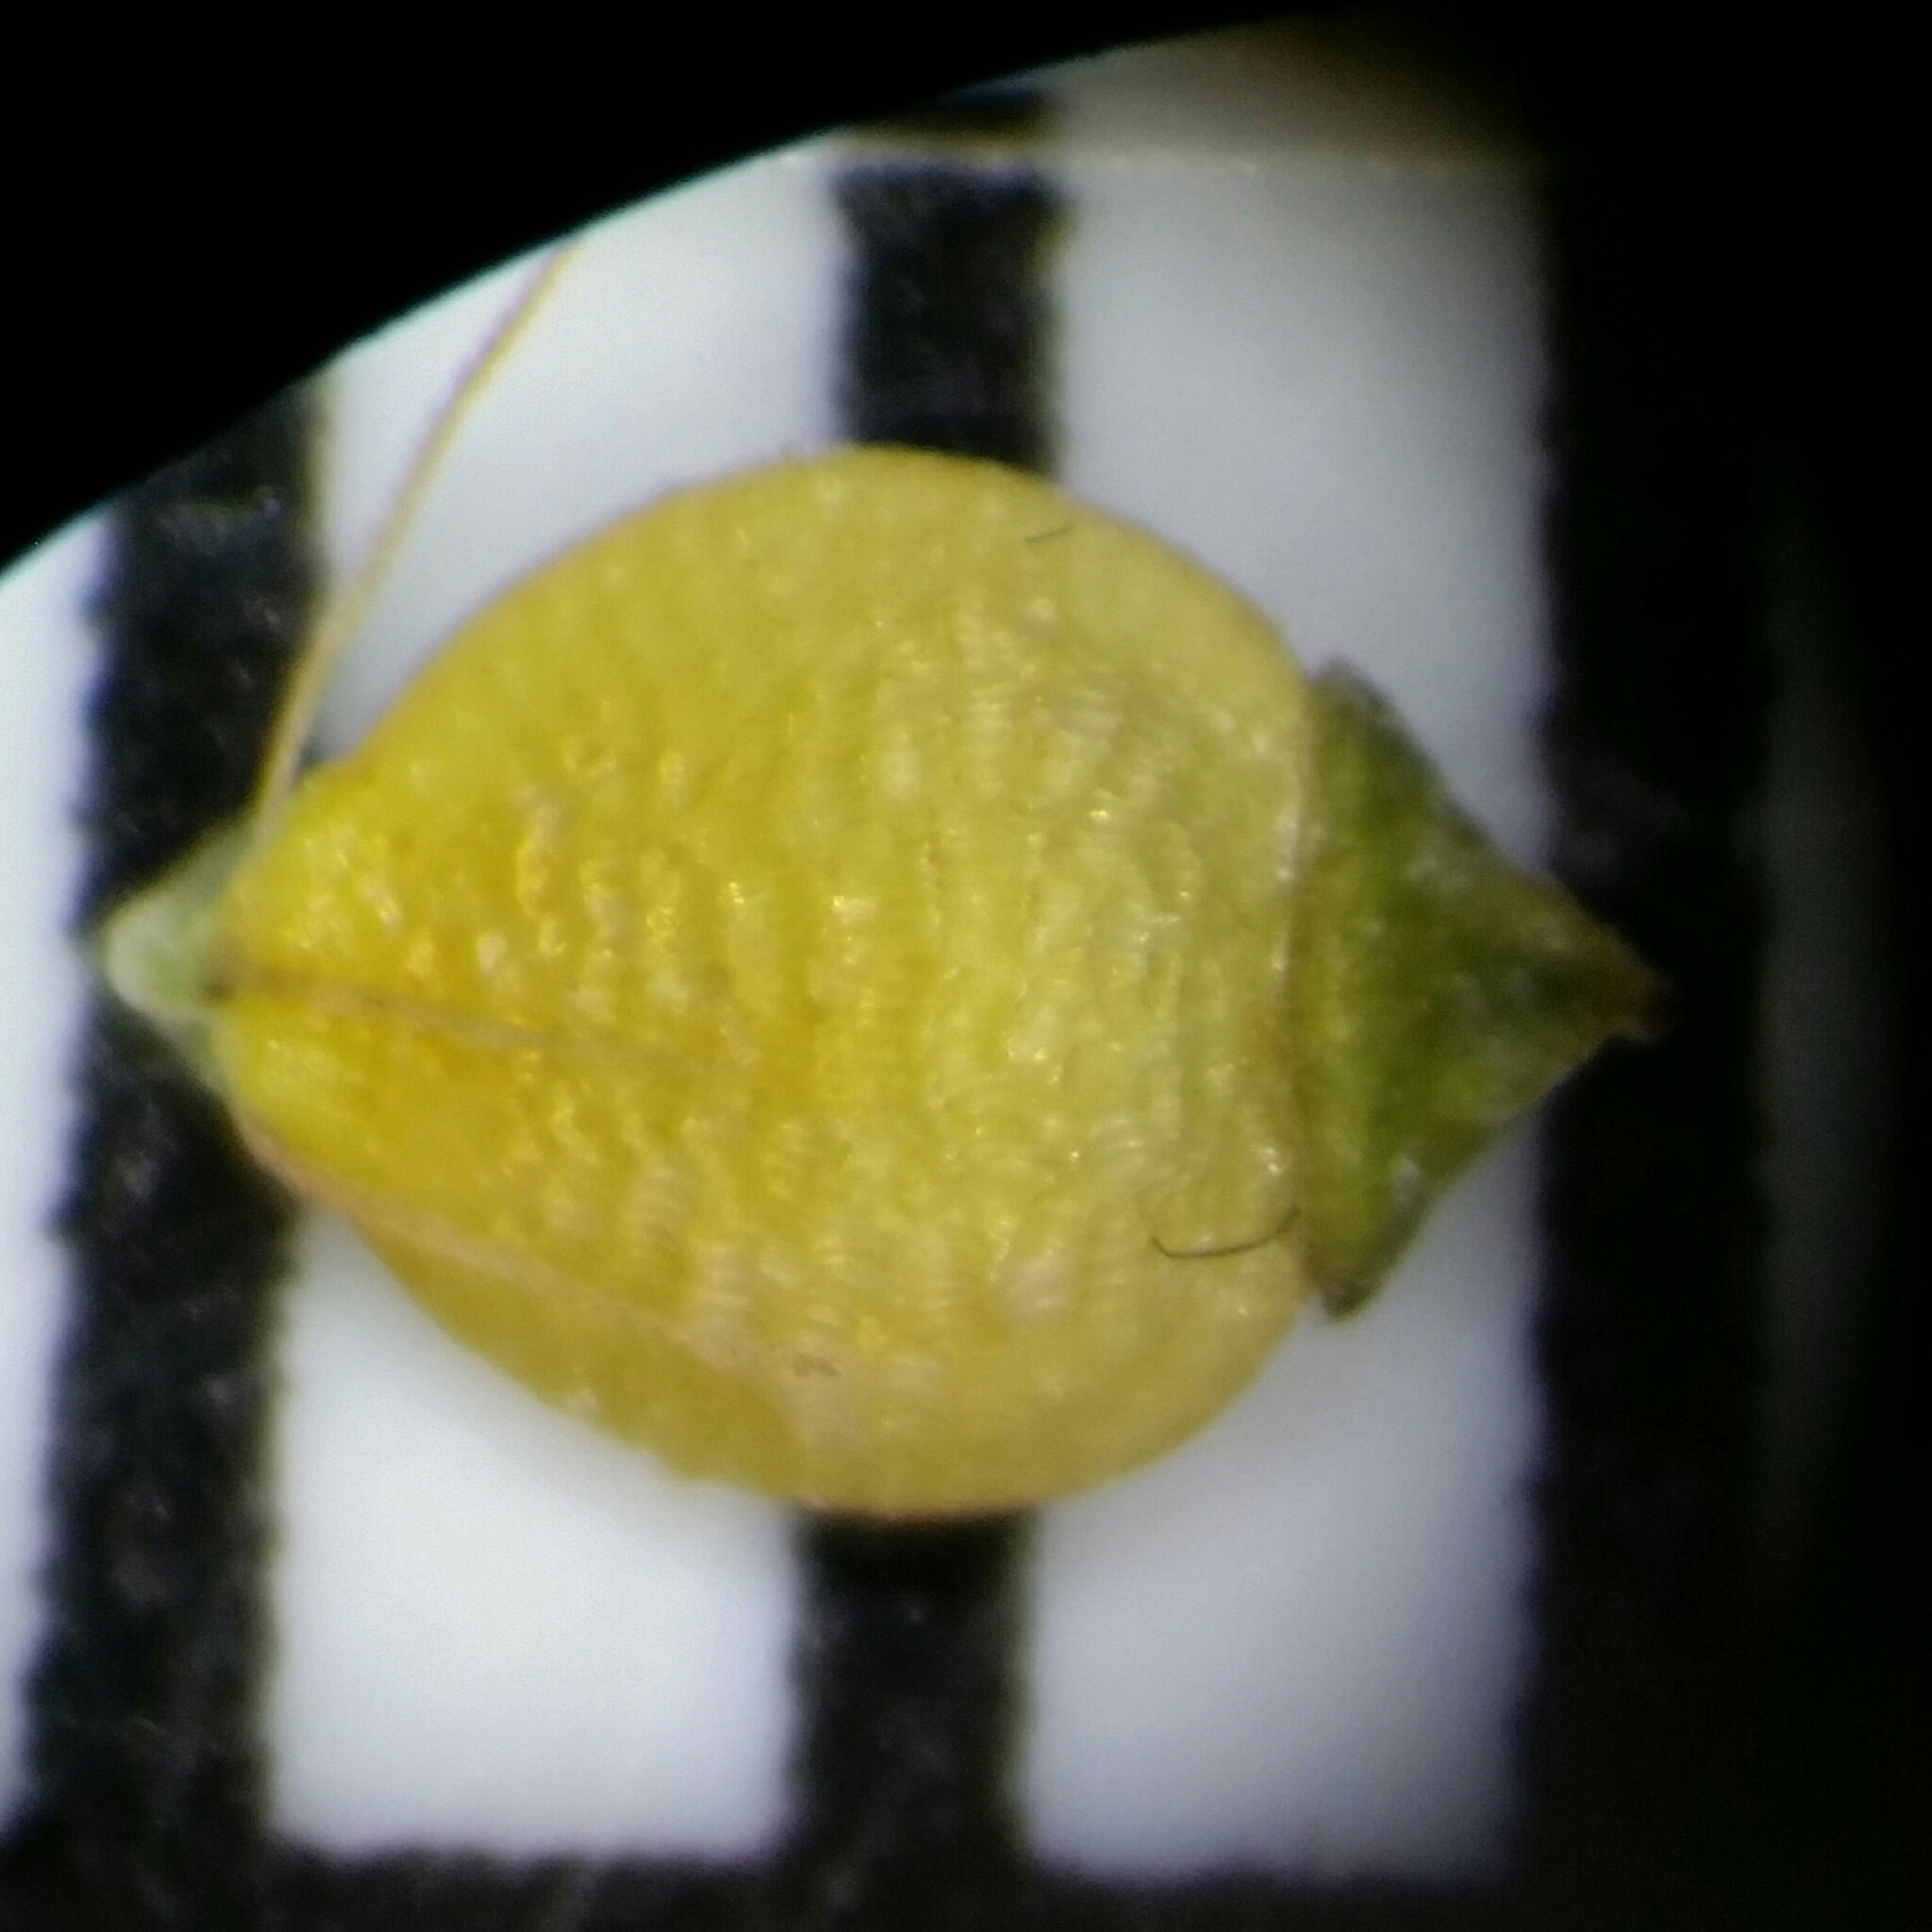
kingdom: Plantae
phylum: Tracheophyta
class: Liliopsida
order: Poales
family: Cyperaceae
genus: Rhynchospora
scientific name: Rhynchospora recognita
